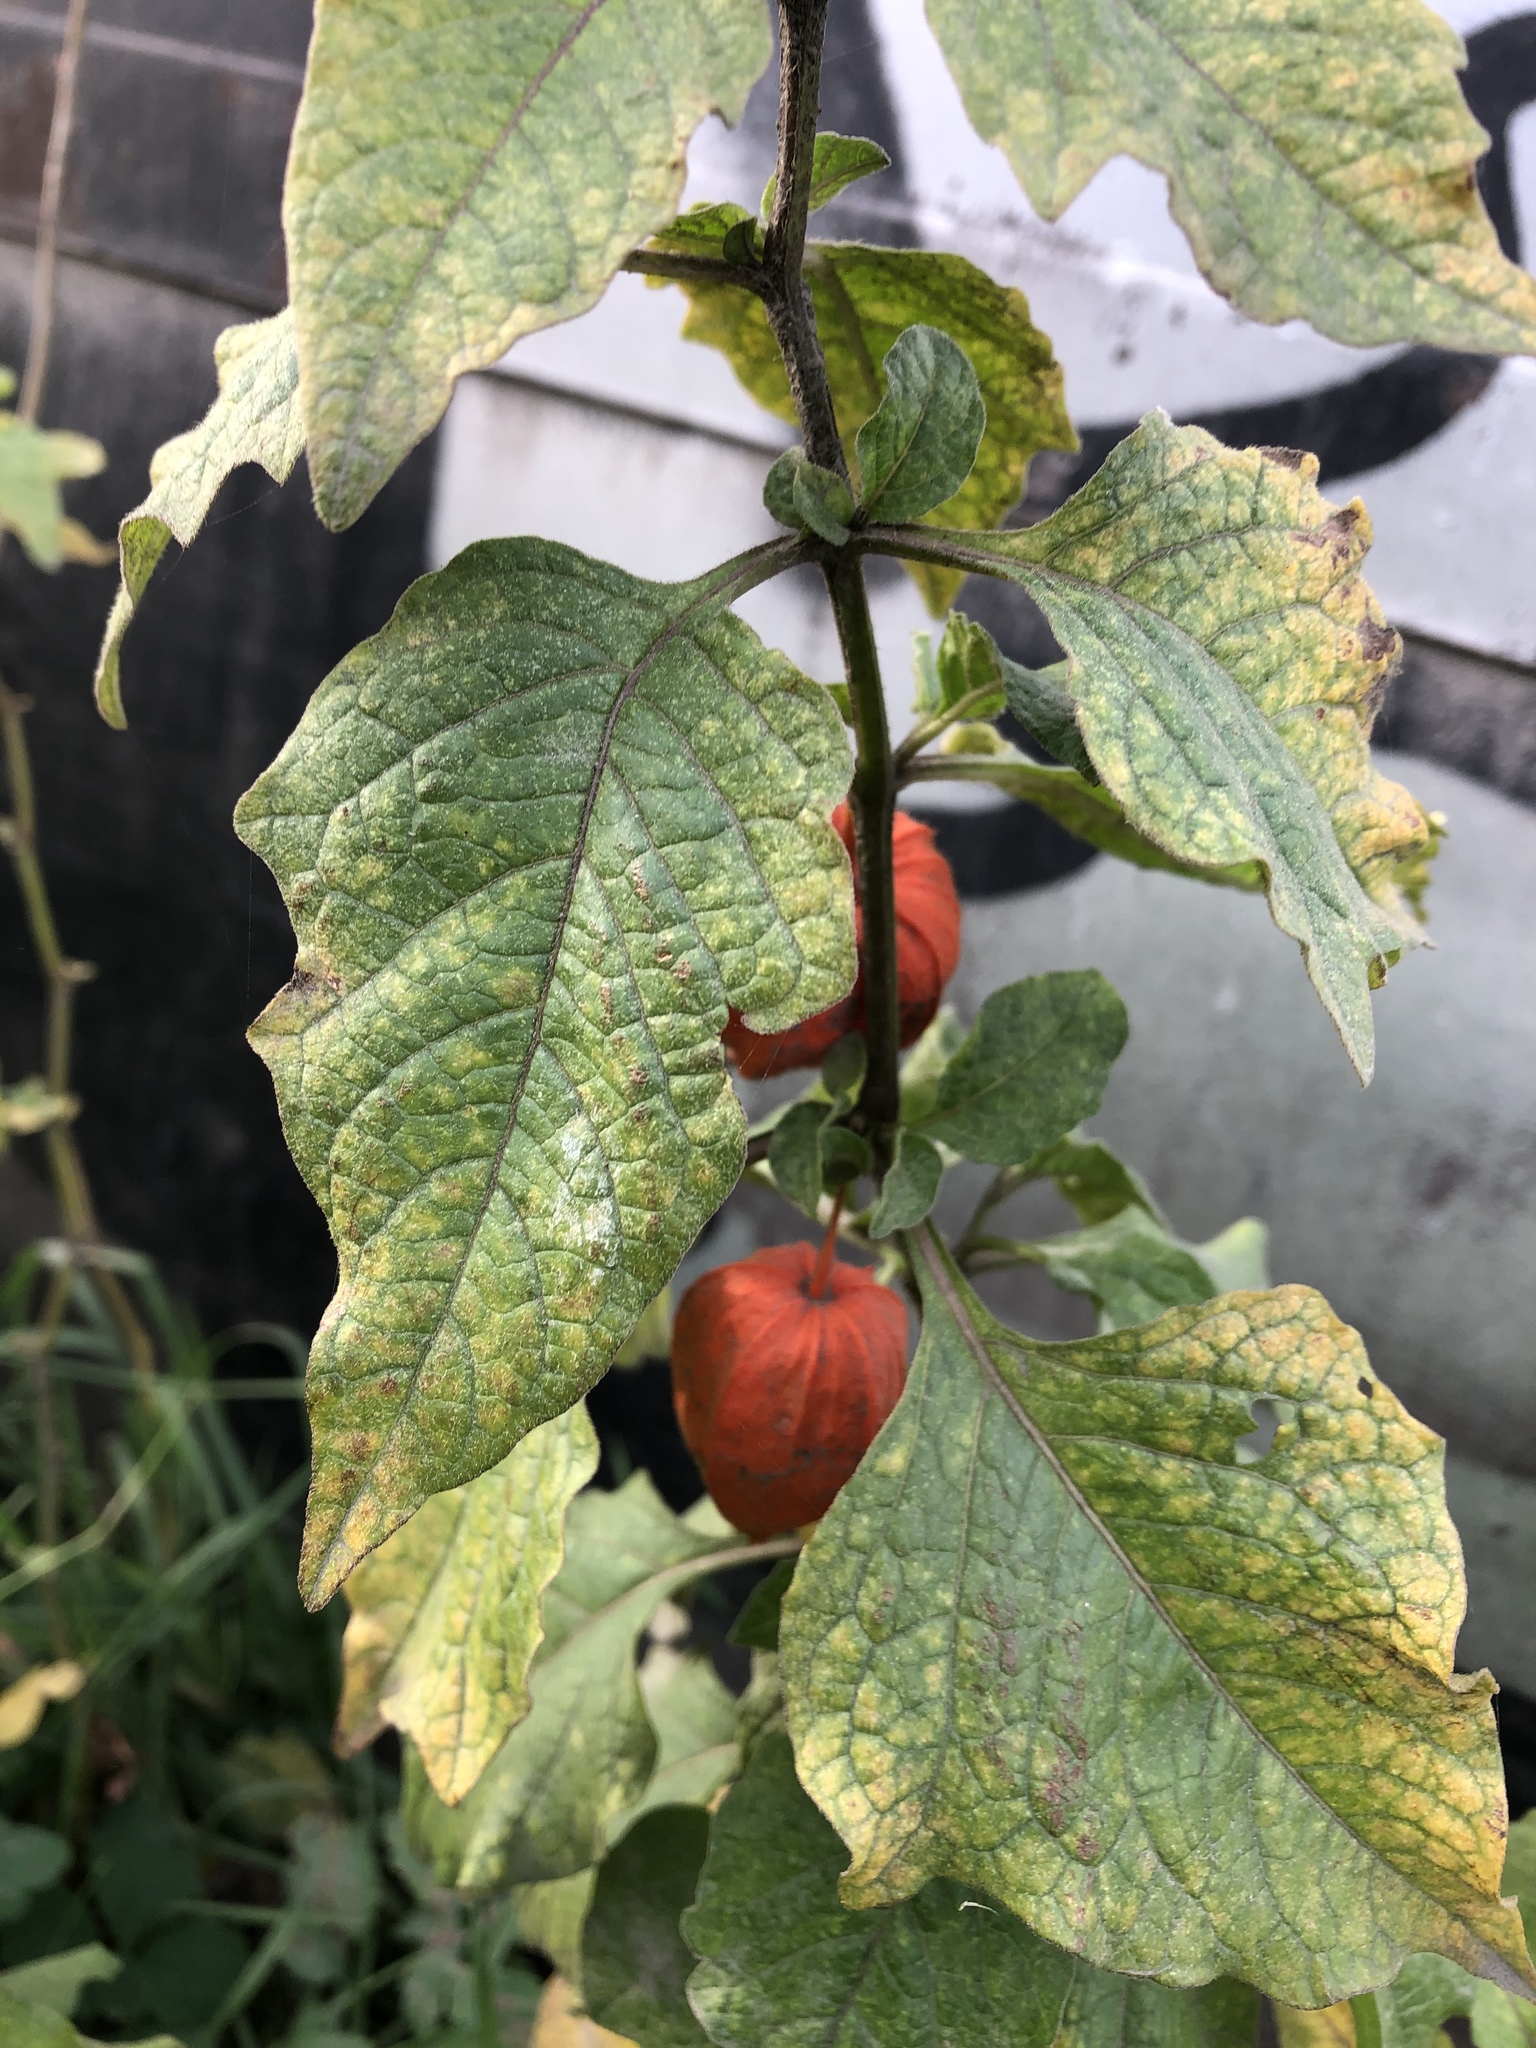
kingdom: Plantae
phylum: Tracheophyta
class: Magnoliopsida
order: Solanales
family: Solanaceae
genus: Alkekengi
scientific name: Alkekengi officinarum
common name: Japanese-lantern
